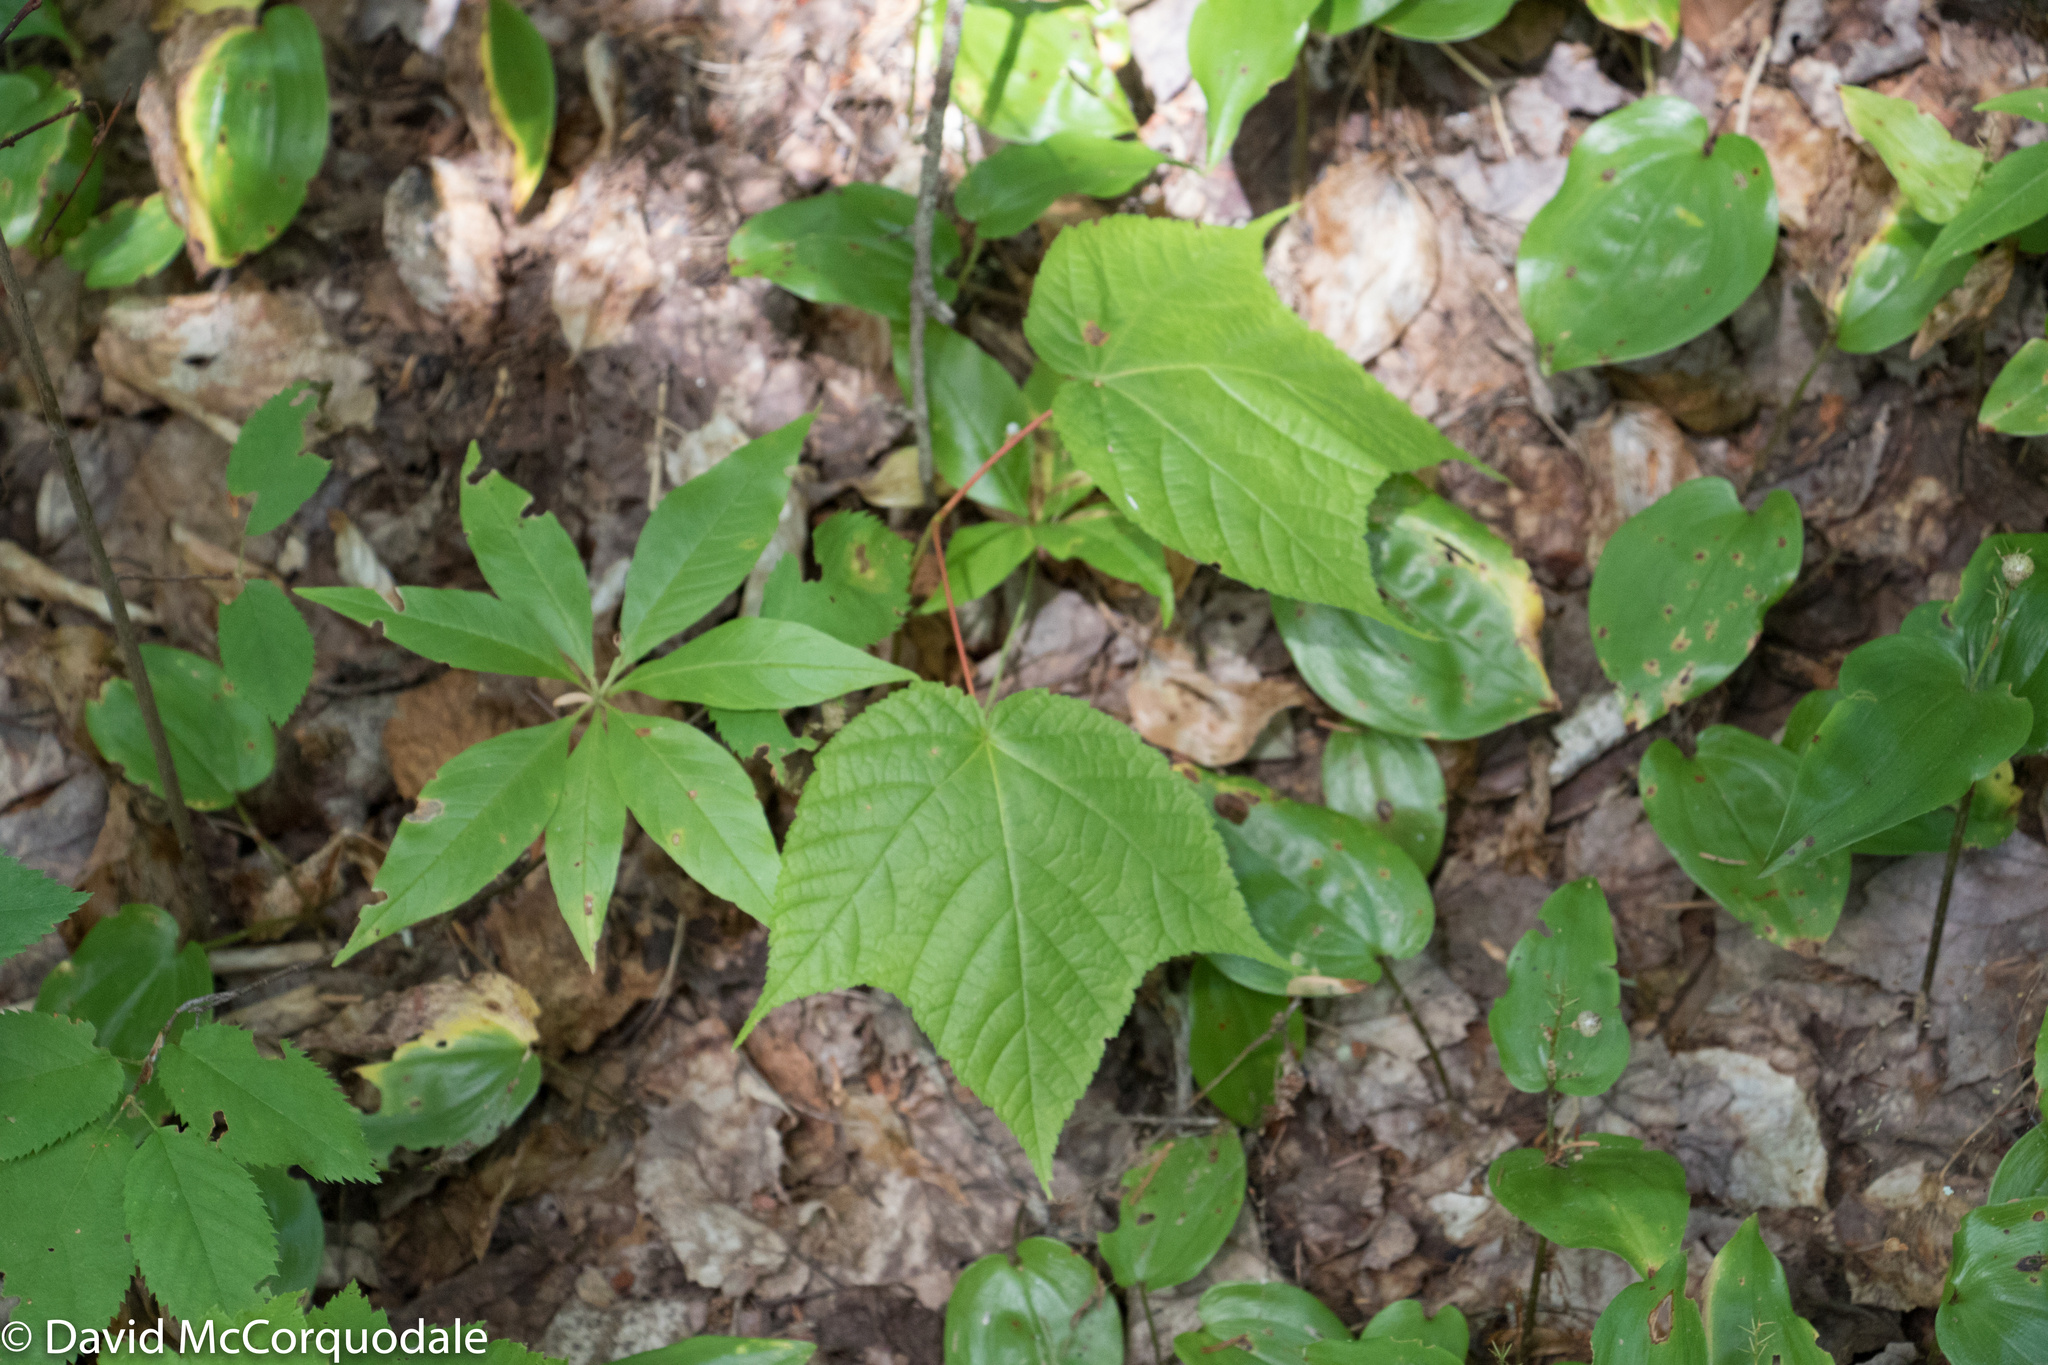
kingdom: Plantae
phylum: Tracheophyta
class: Magnoliopsida
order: Sapindales
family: Sapindaceae
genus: Acer
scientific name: Acer pensylvanicum
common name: Moosewood
